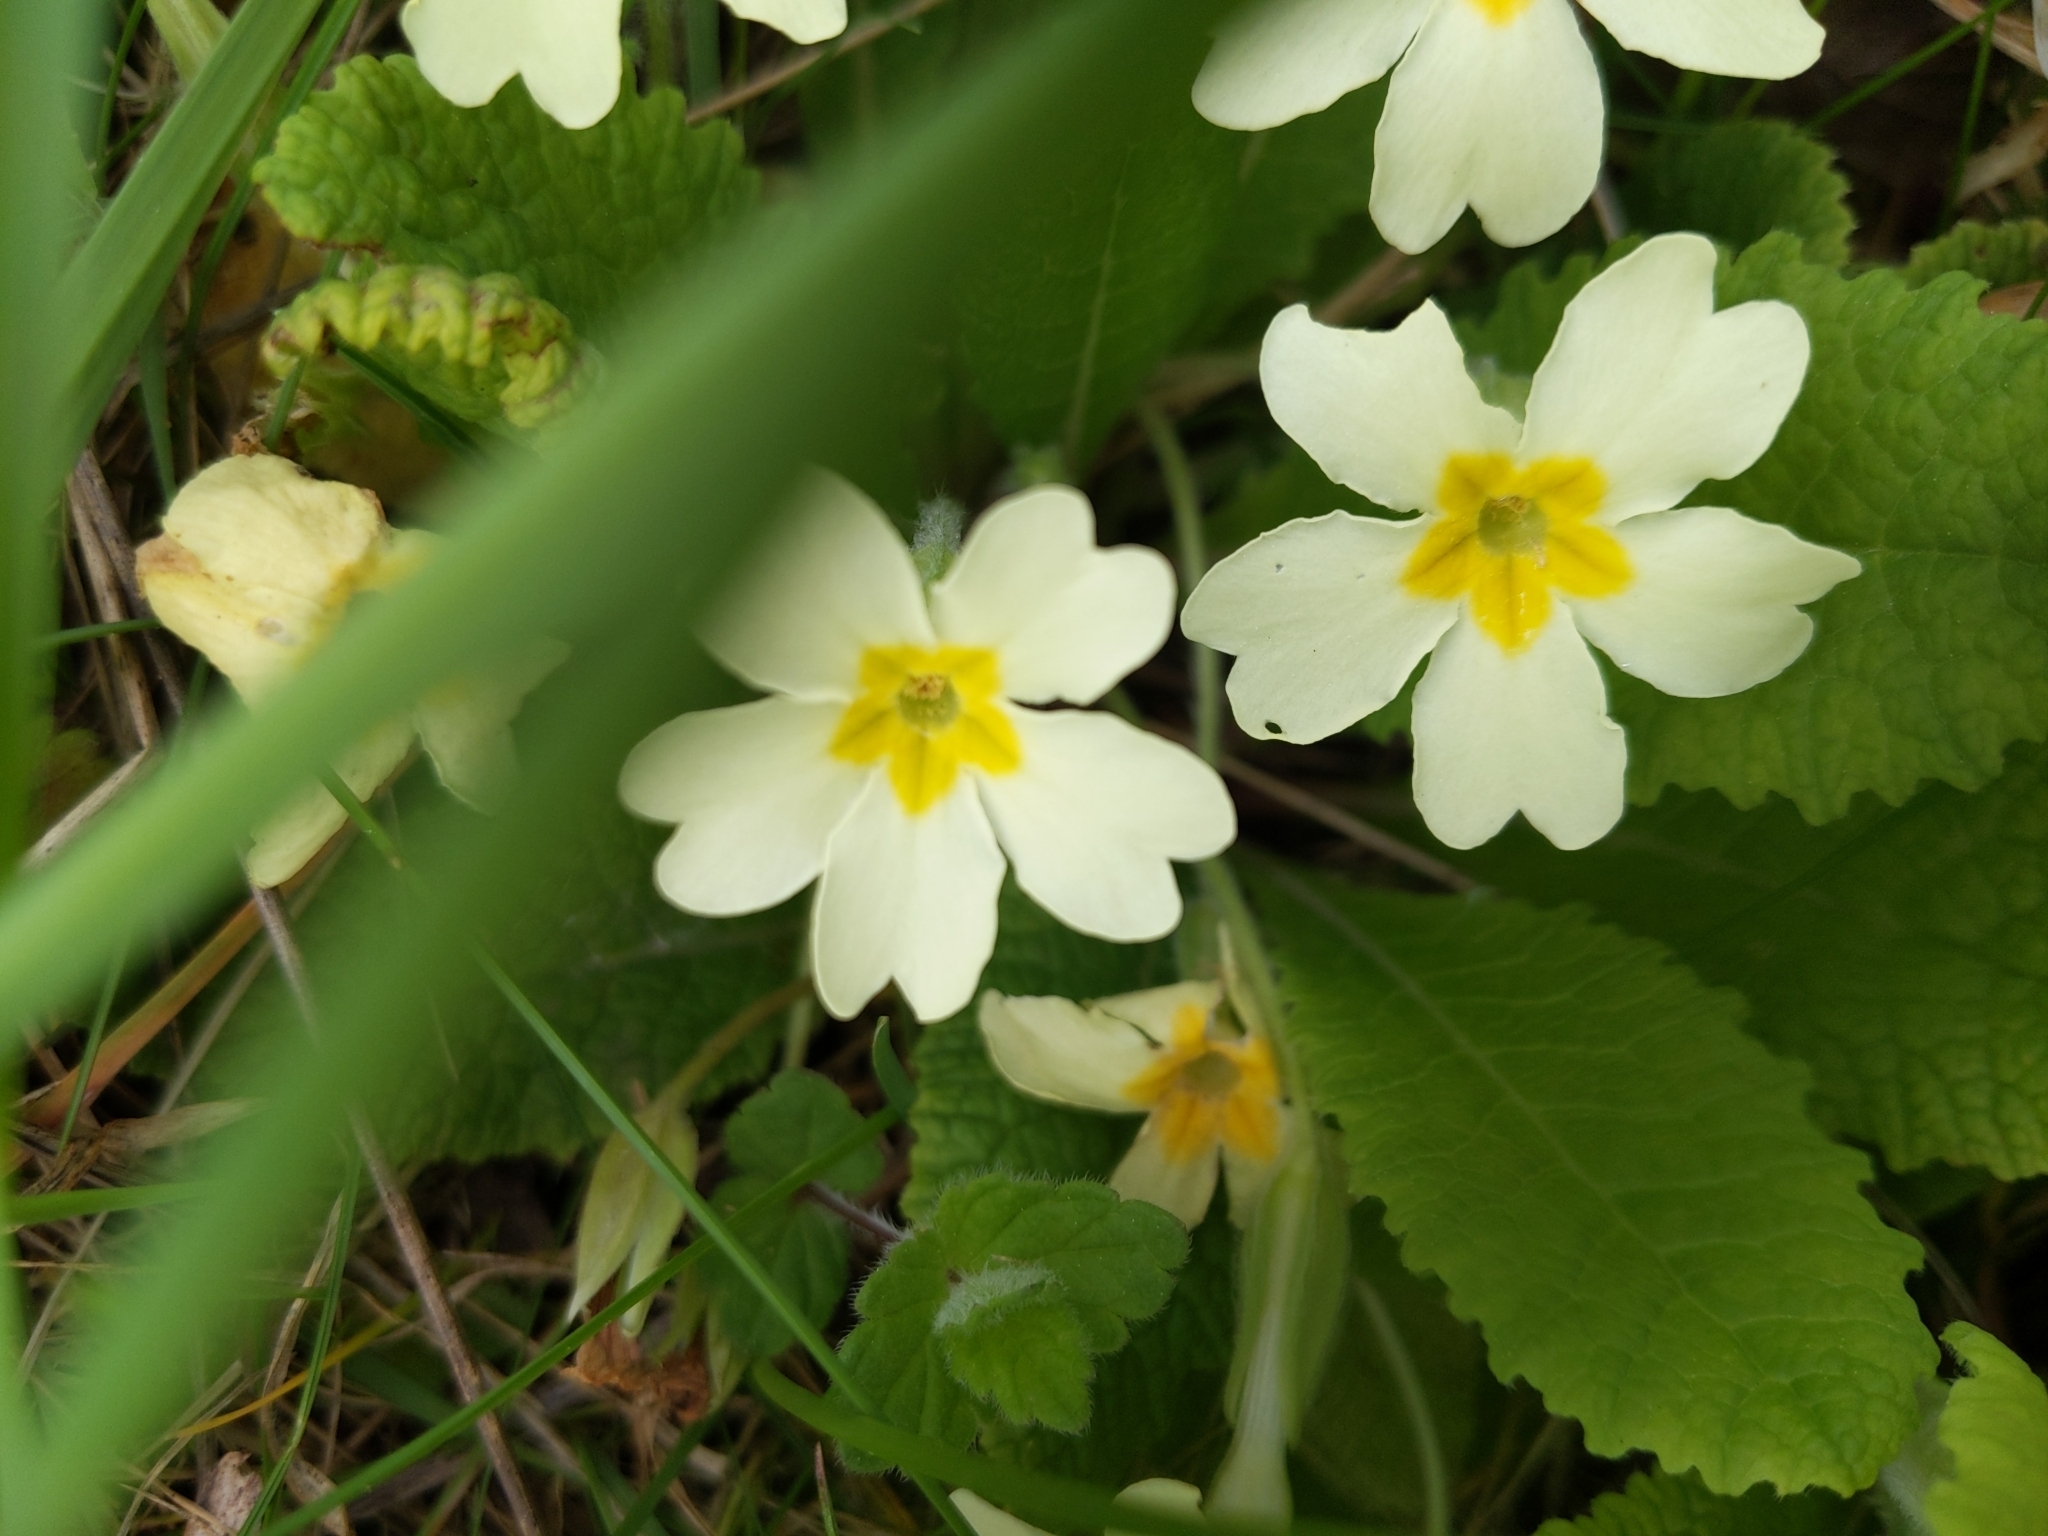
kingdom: Plantae
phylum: Tracheophyta
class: Magnoliopsida
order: Ericales
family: Primulaceae
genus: Primula
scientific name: Primula vulgaris
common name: Primrose
